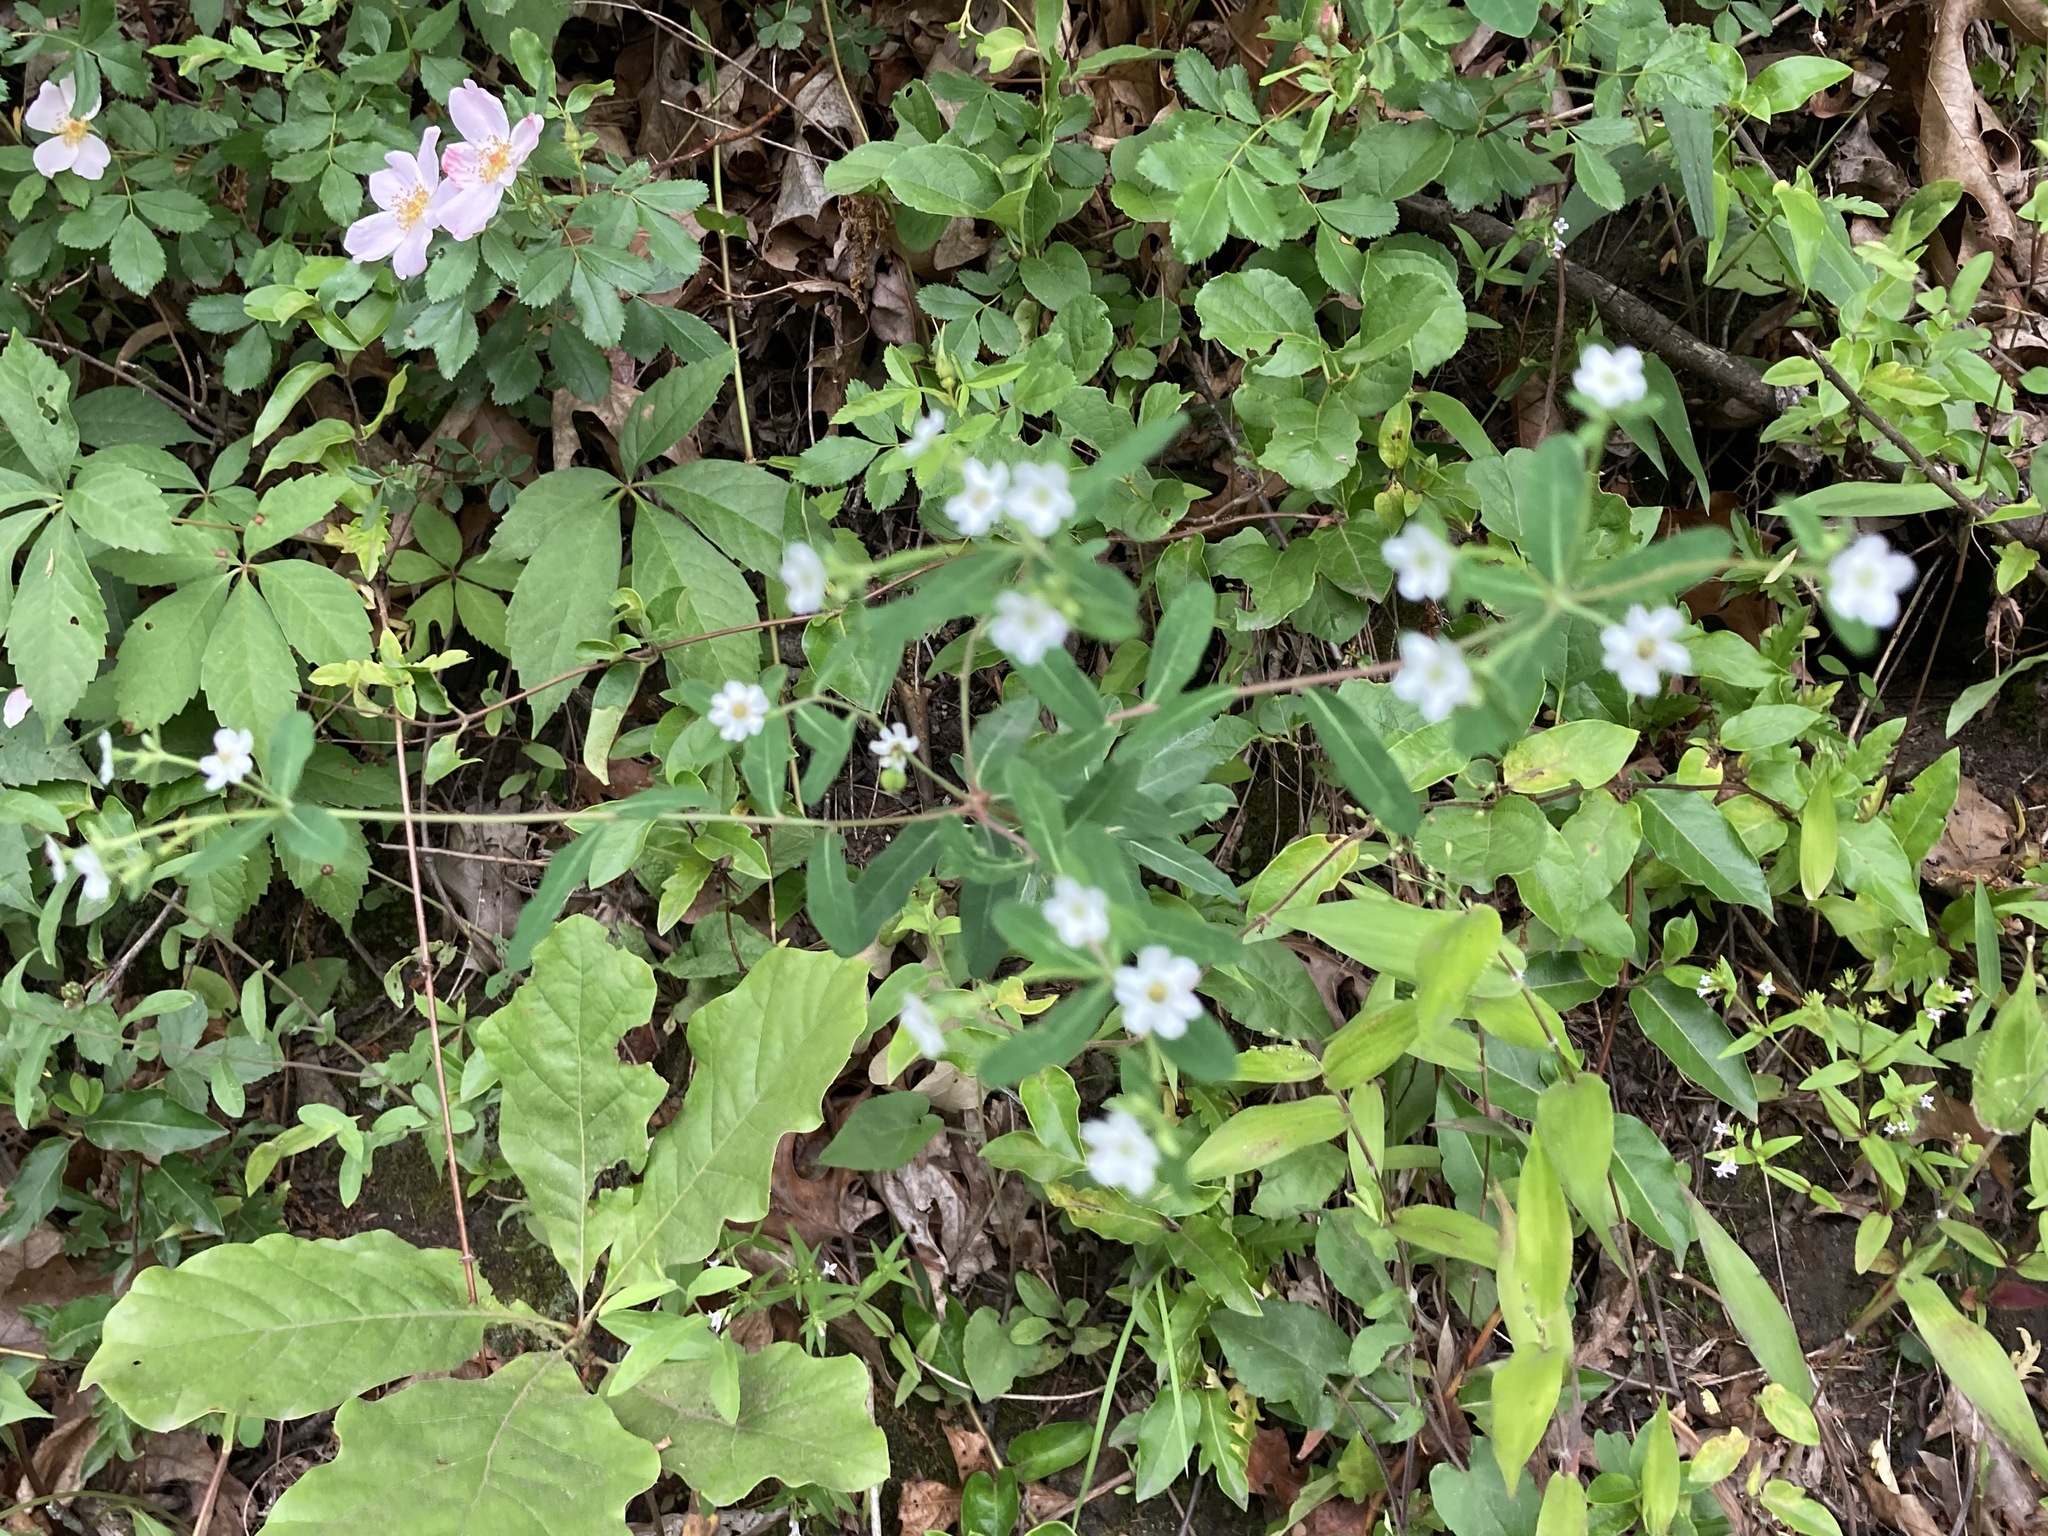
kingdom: Plantae
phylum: Tracheophyta
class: Magnoliopsida
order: Malpighiales
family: Euphorbiaceae
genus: Euphorbia
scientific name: Euphorbia corollata
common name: Flowering spurge
